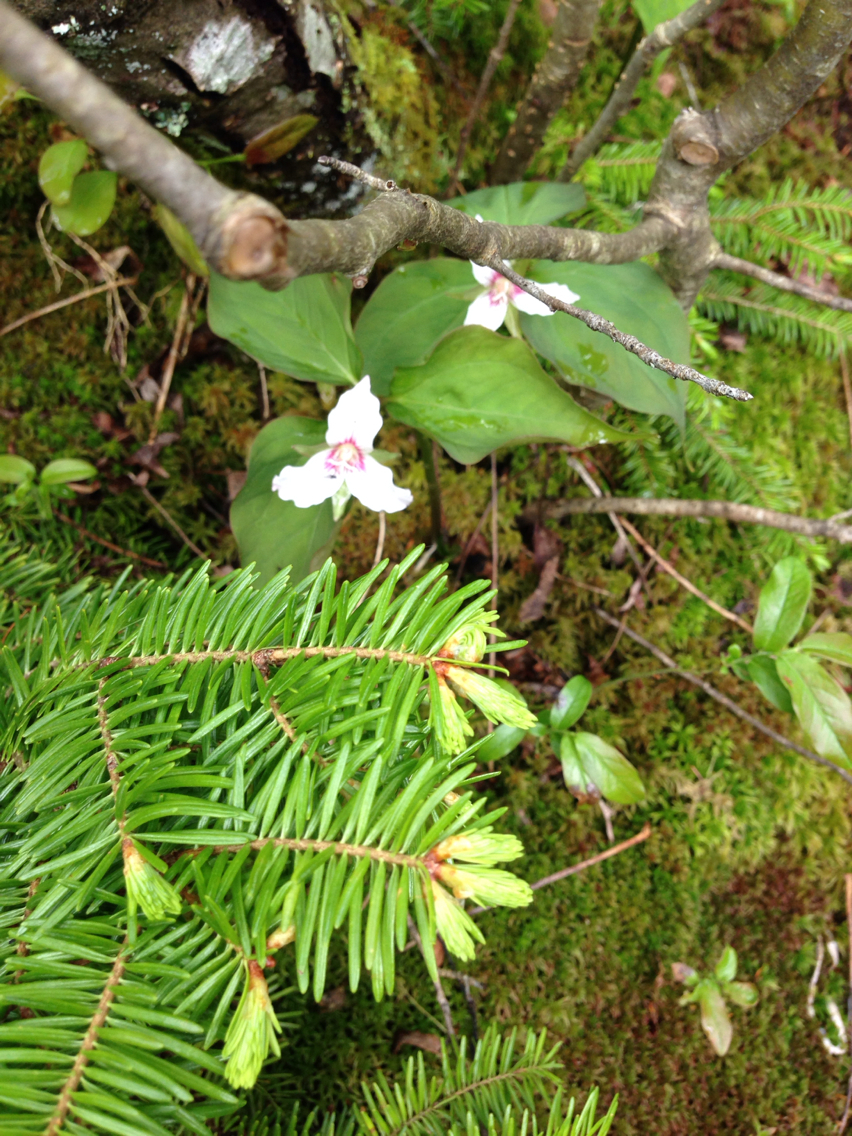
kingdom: Plantae
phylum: Tracheophyta
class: Liliopsida
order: Liliales
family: Melanthiaceae
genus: Trillium
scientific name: Trillium undulatum
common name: Paint trillium
